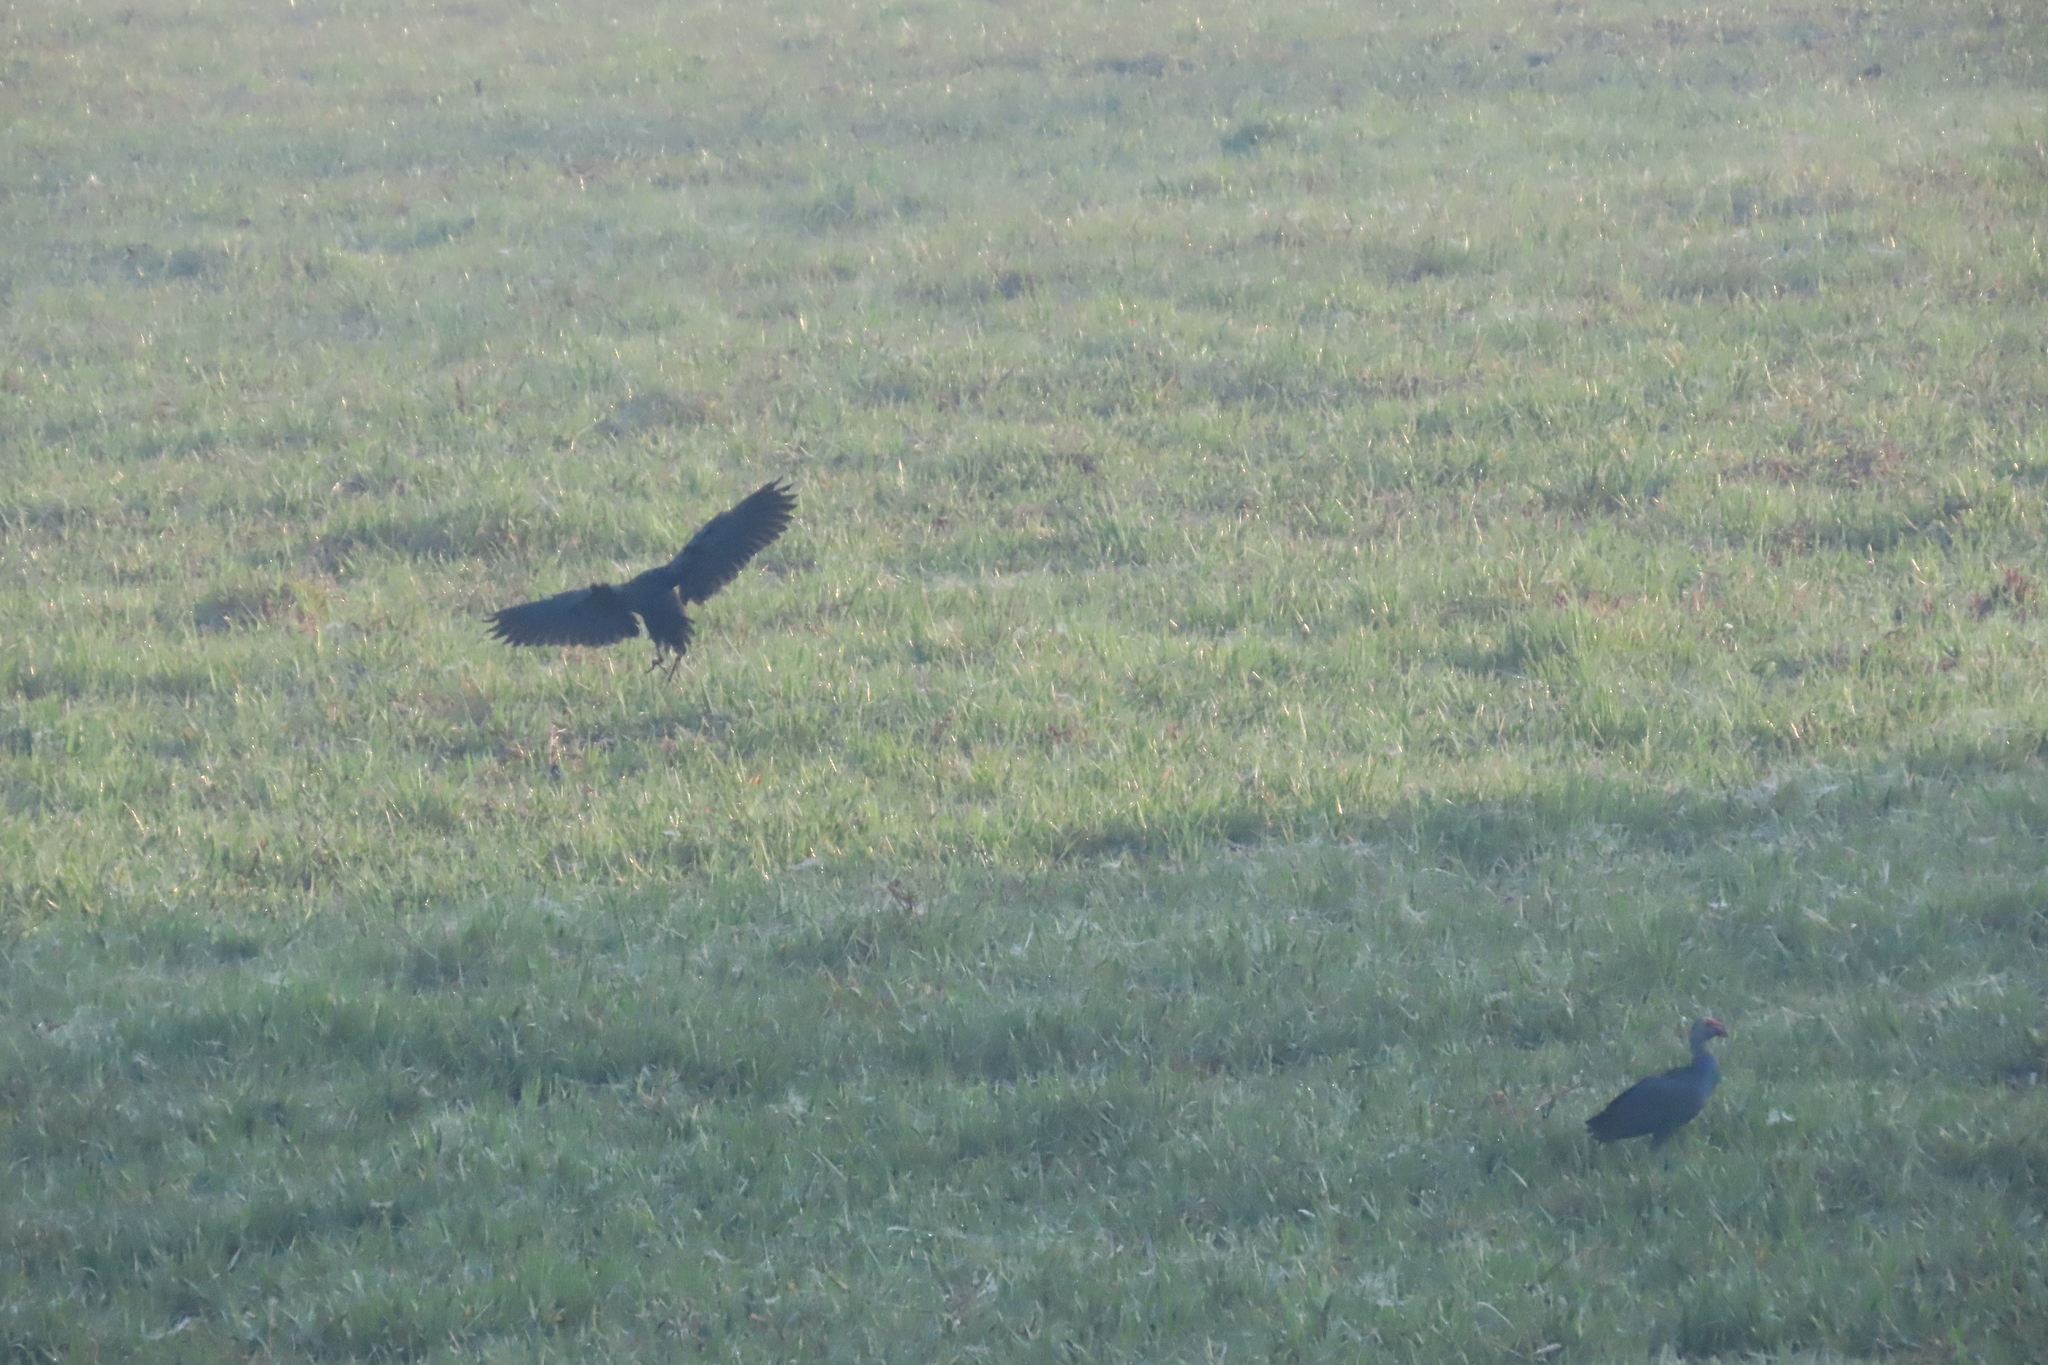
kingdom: Animalia
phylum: Chordata
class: Aves
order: Gruiformes
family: Rallidae
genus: Porphyrio
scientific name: Porphyrio porphyrio
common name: Purple swamphen
